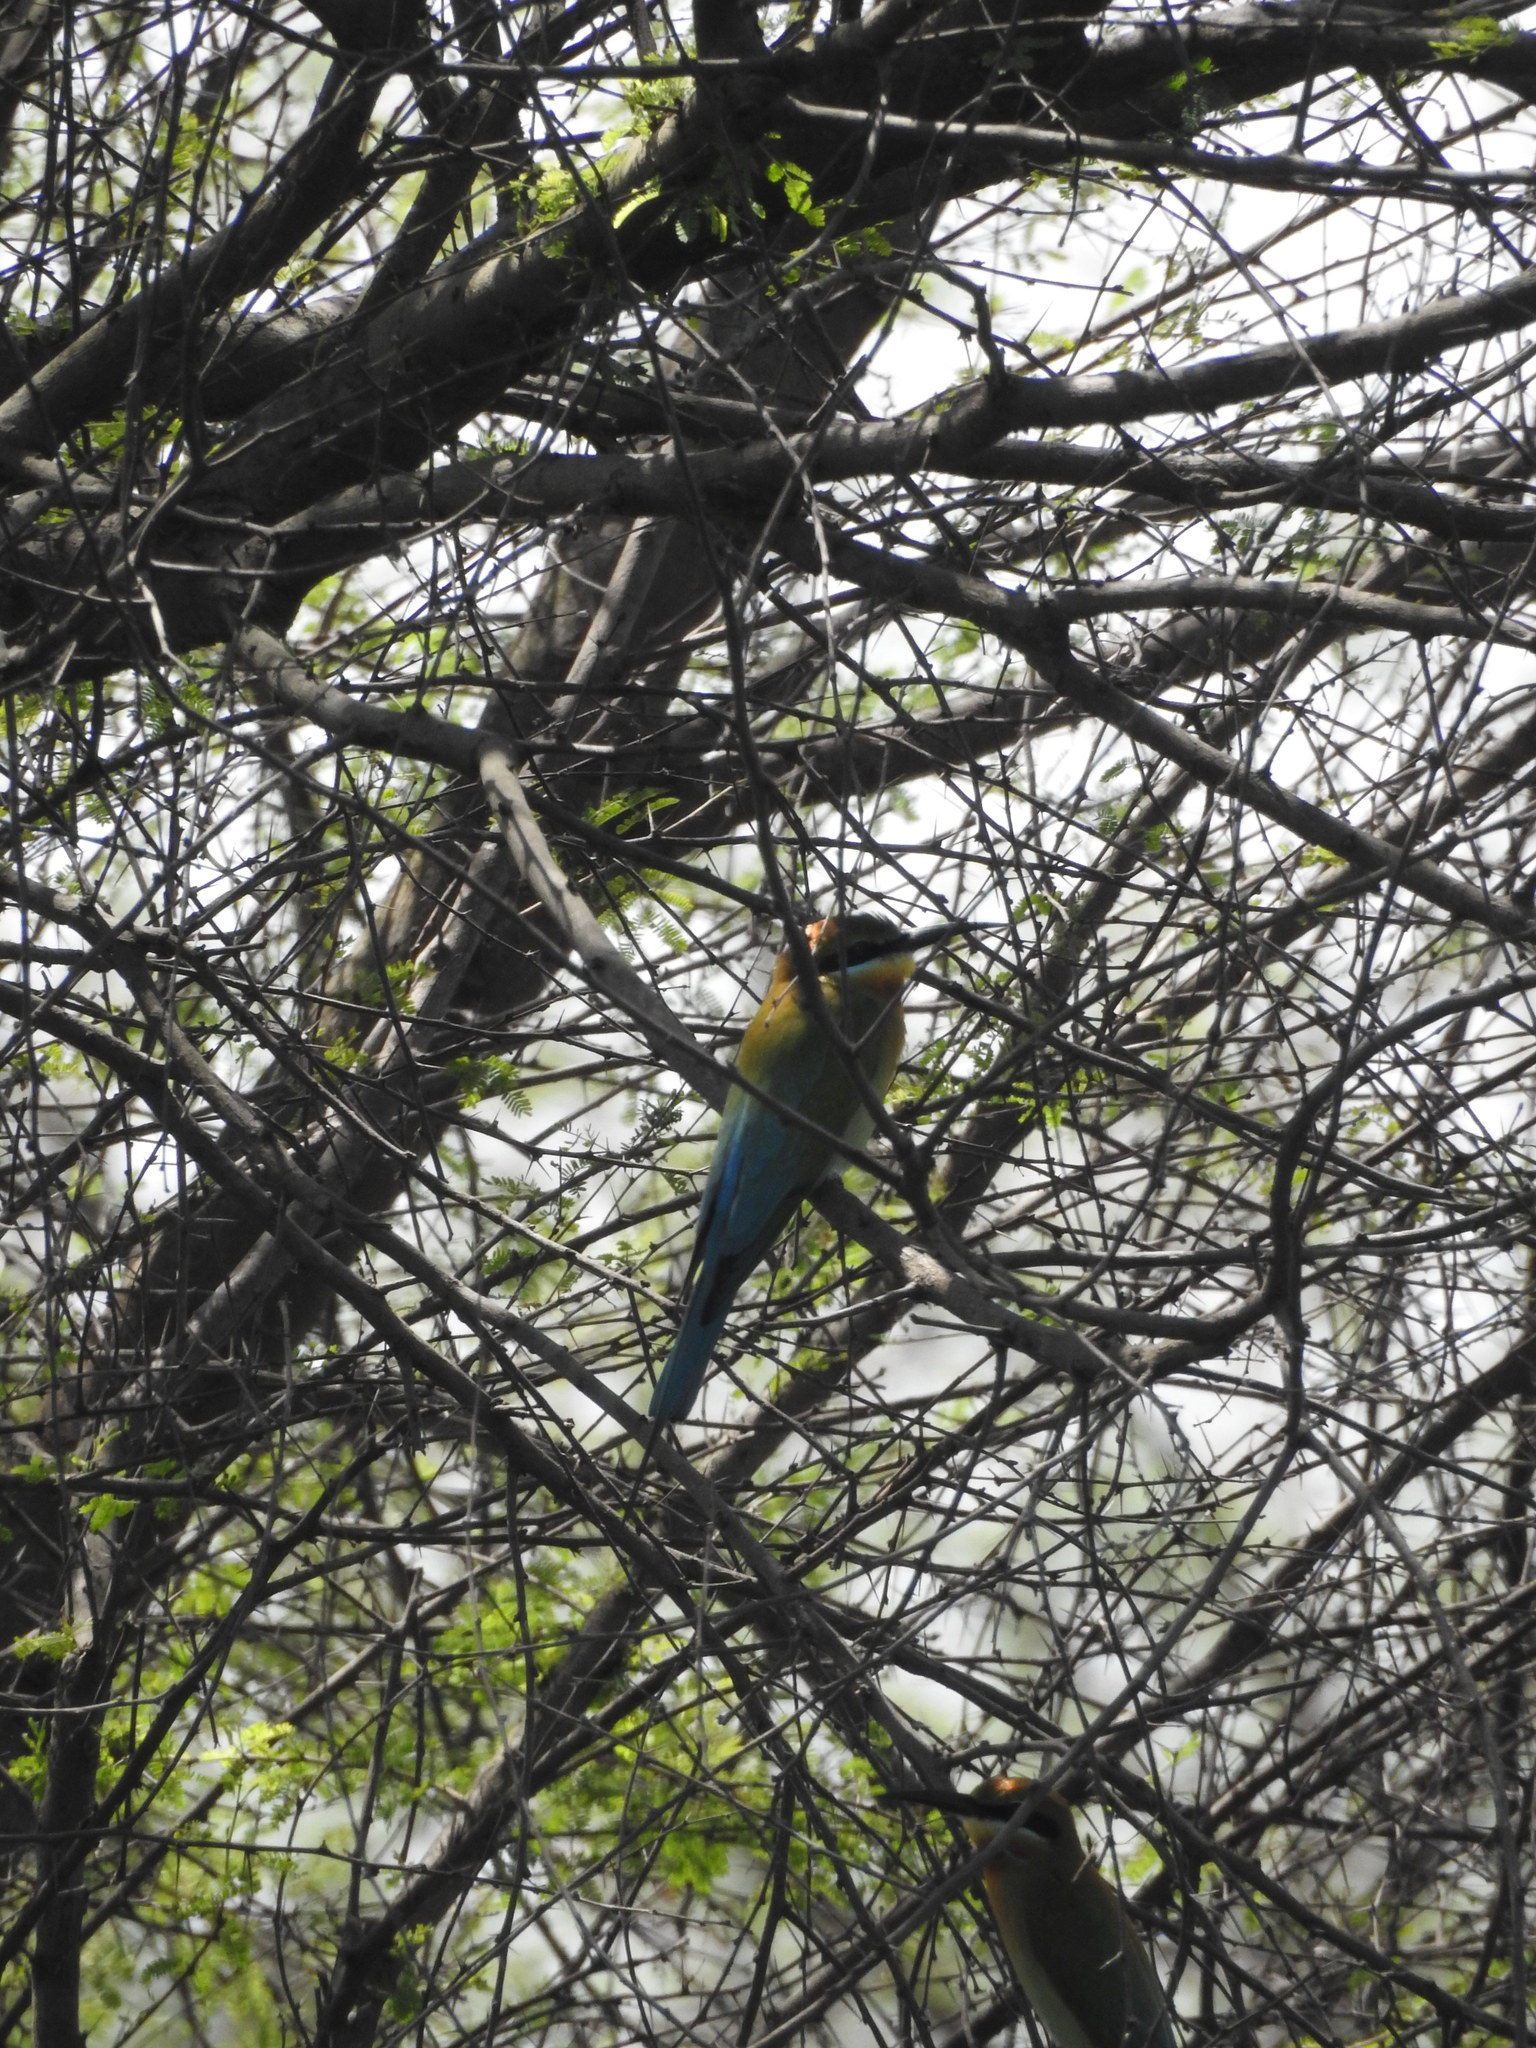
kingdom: Animalia
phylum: Chordata
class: Aves
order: Coraciiformes
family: Meropidae
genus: Merops
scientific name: Merops philippinus
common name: Blue-tailed bee-eater
